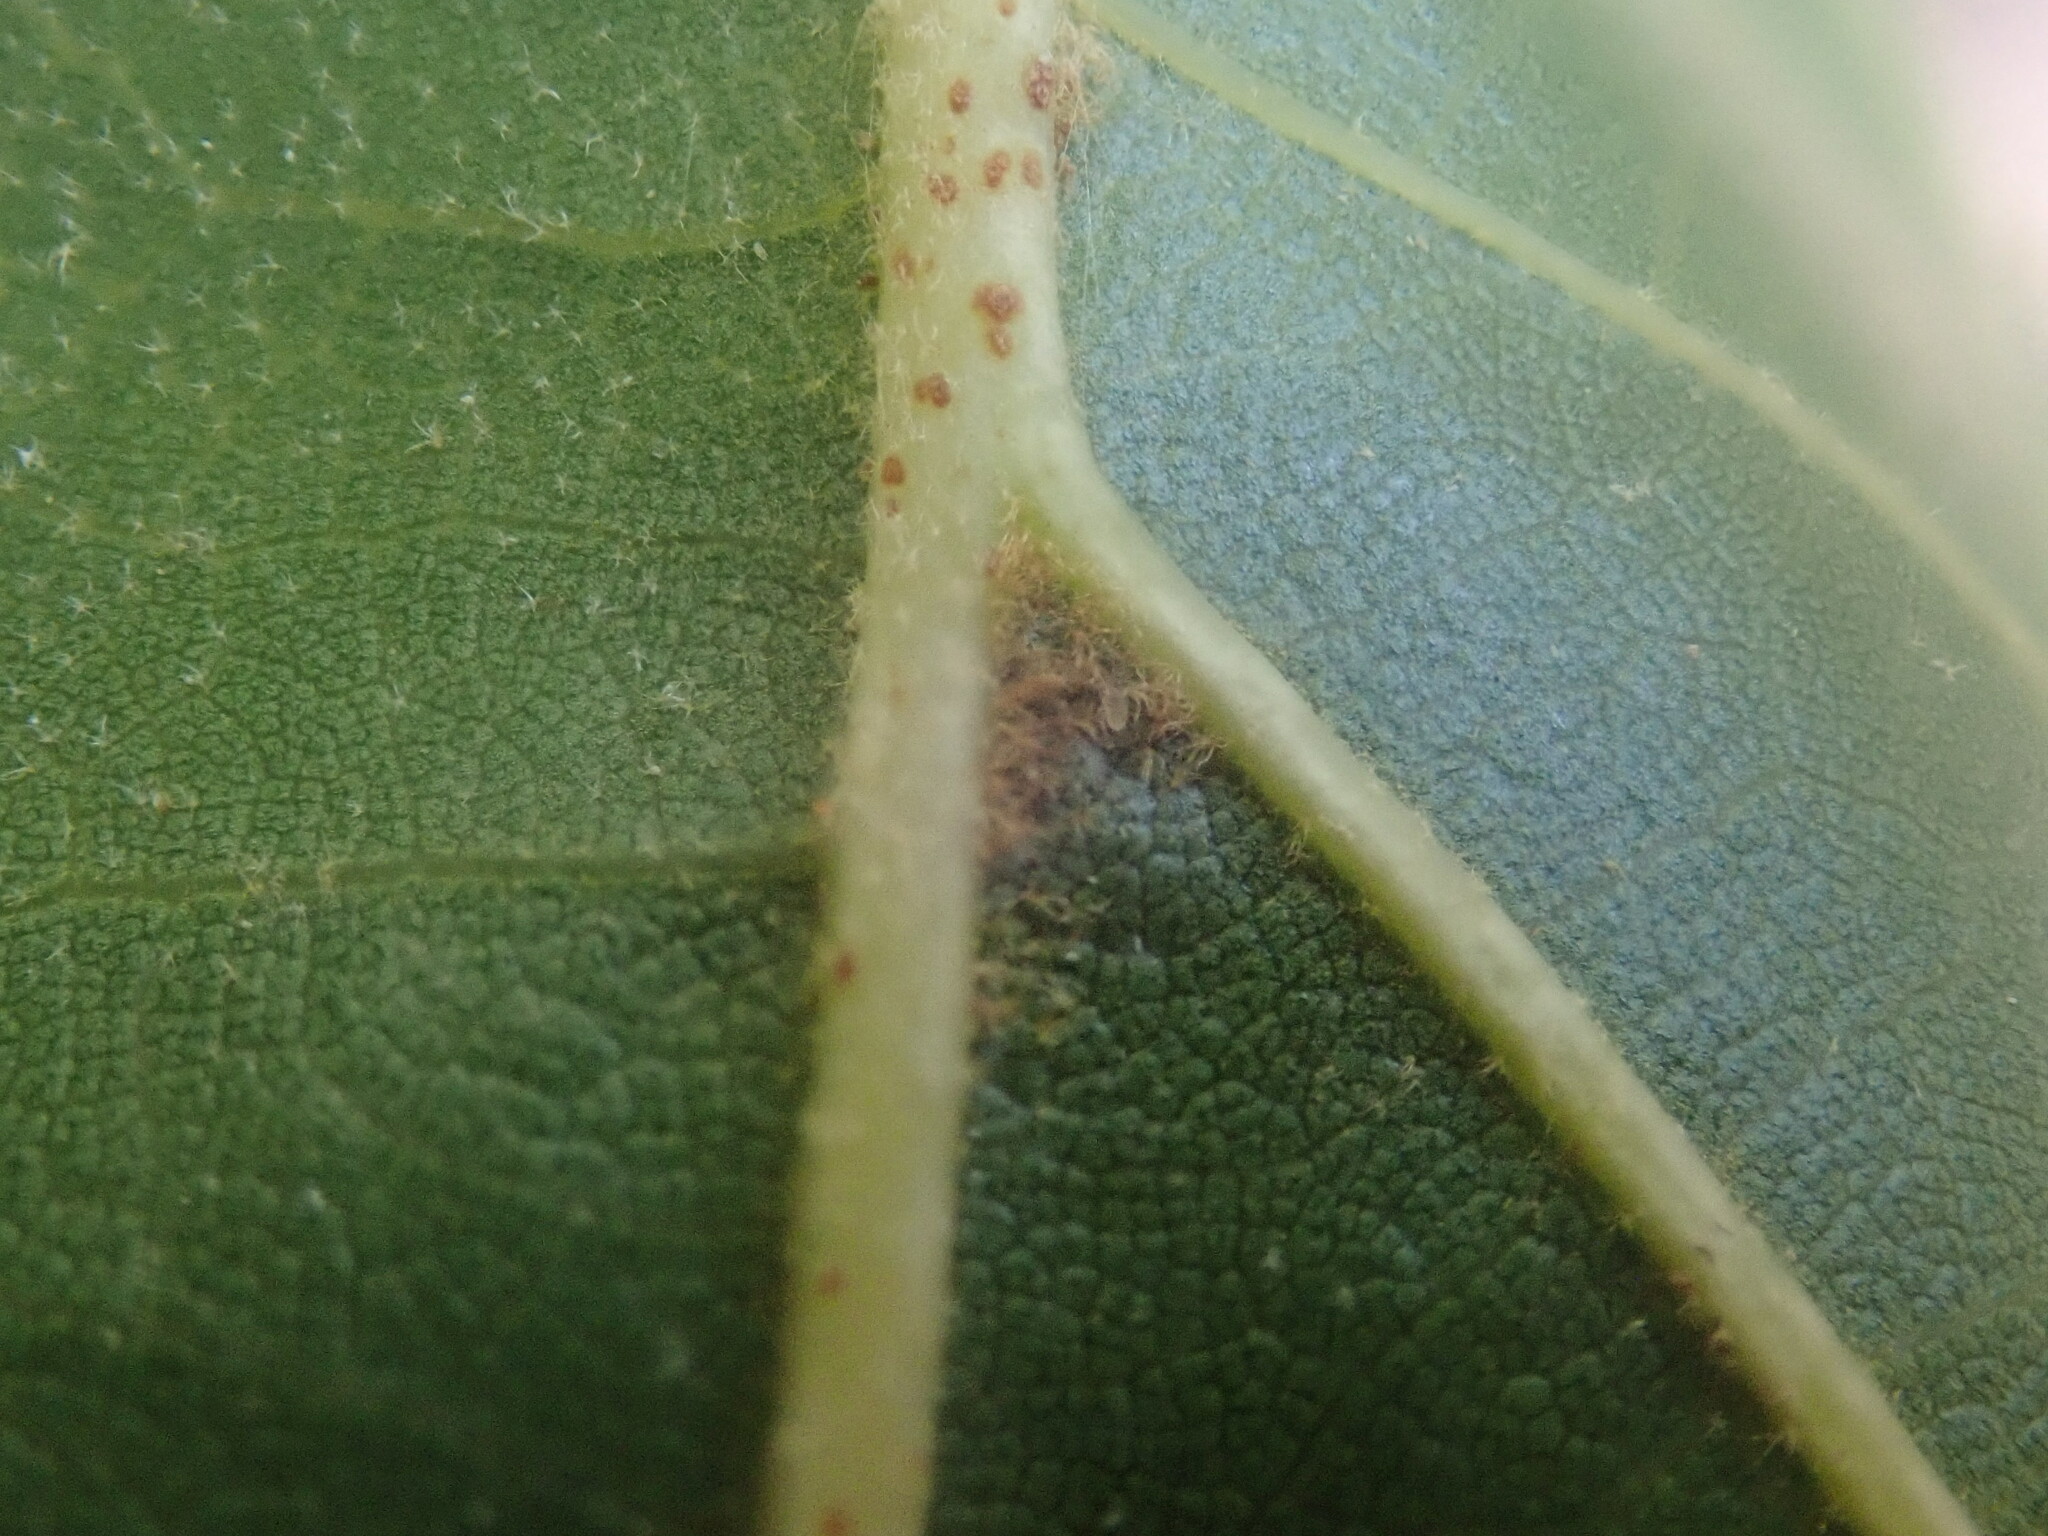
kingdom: Plantae
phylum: Tracheophyta
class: Magnoliopsida
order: Fagales
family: Fagaceae
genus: Quercus
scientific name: Quercus velutina
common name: Black oak
